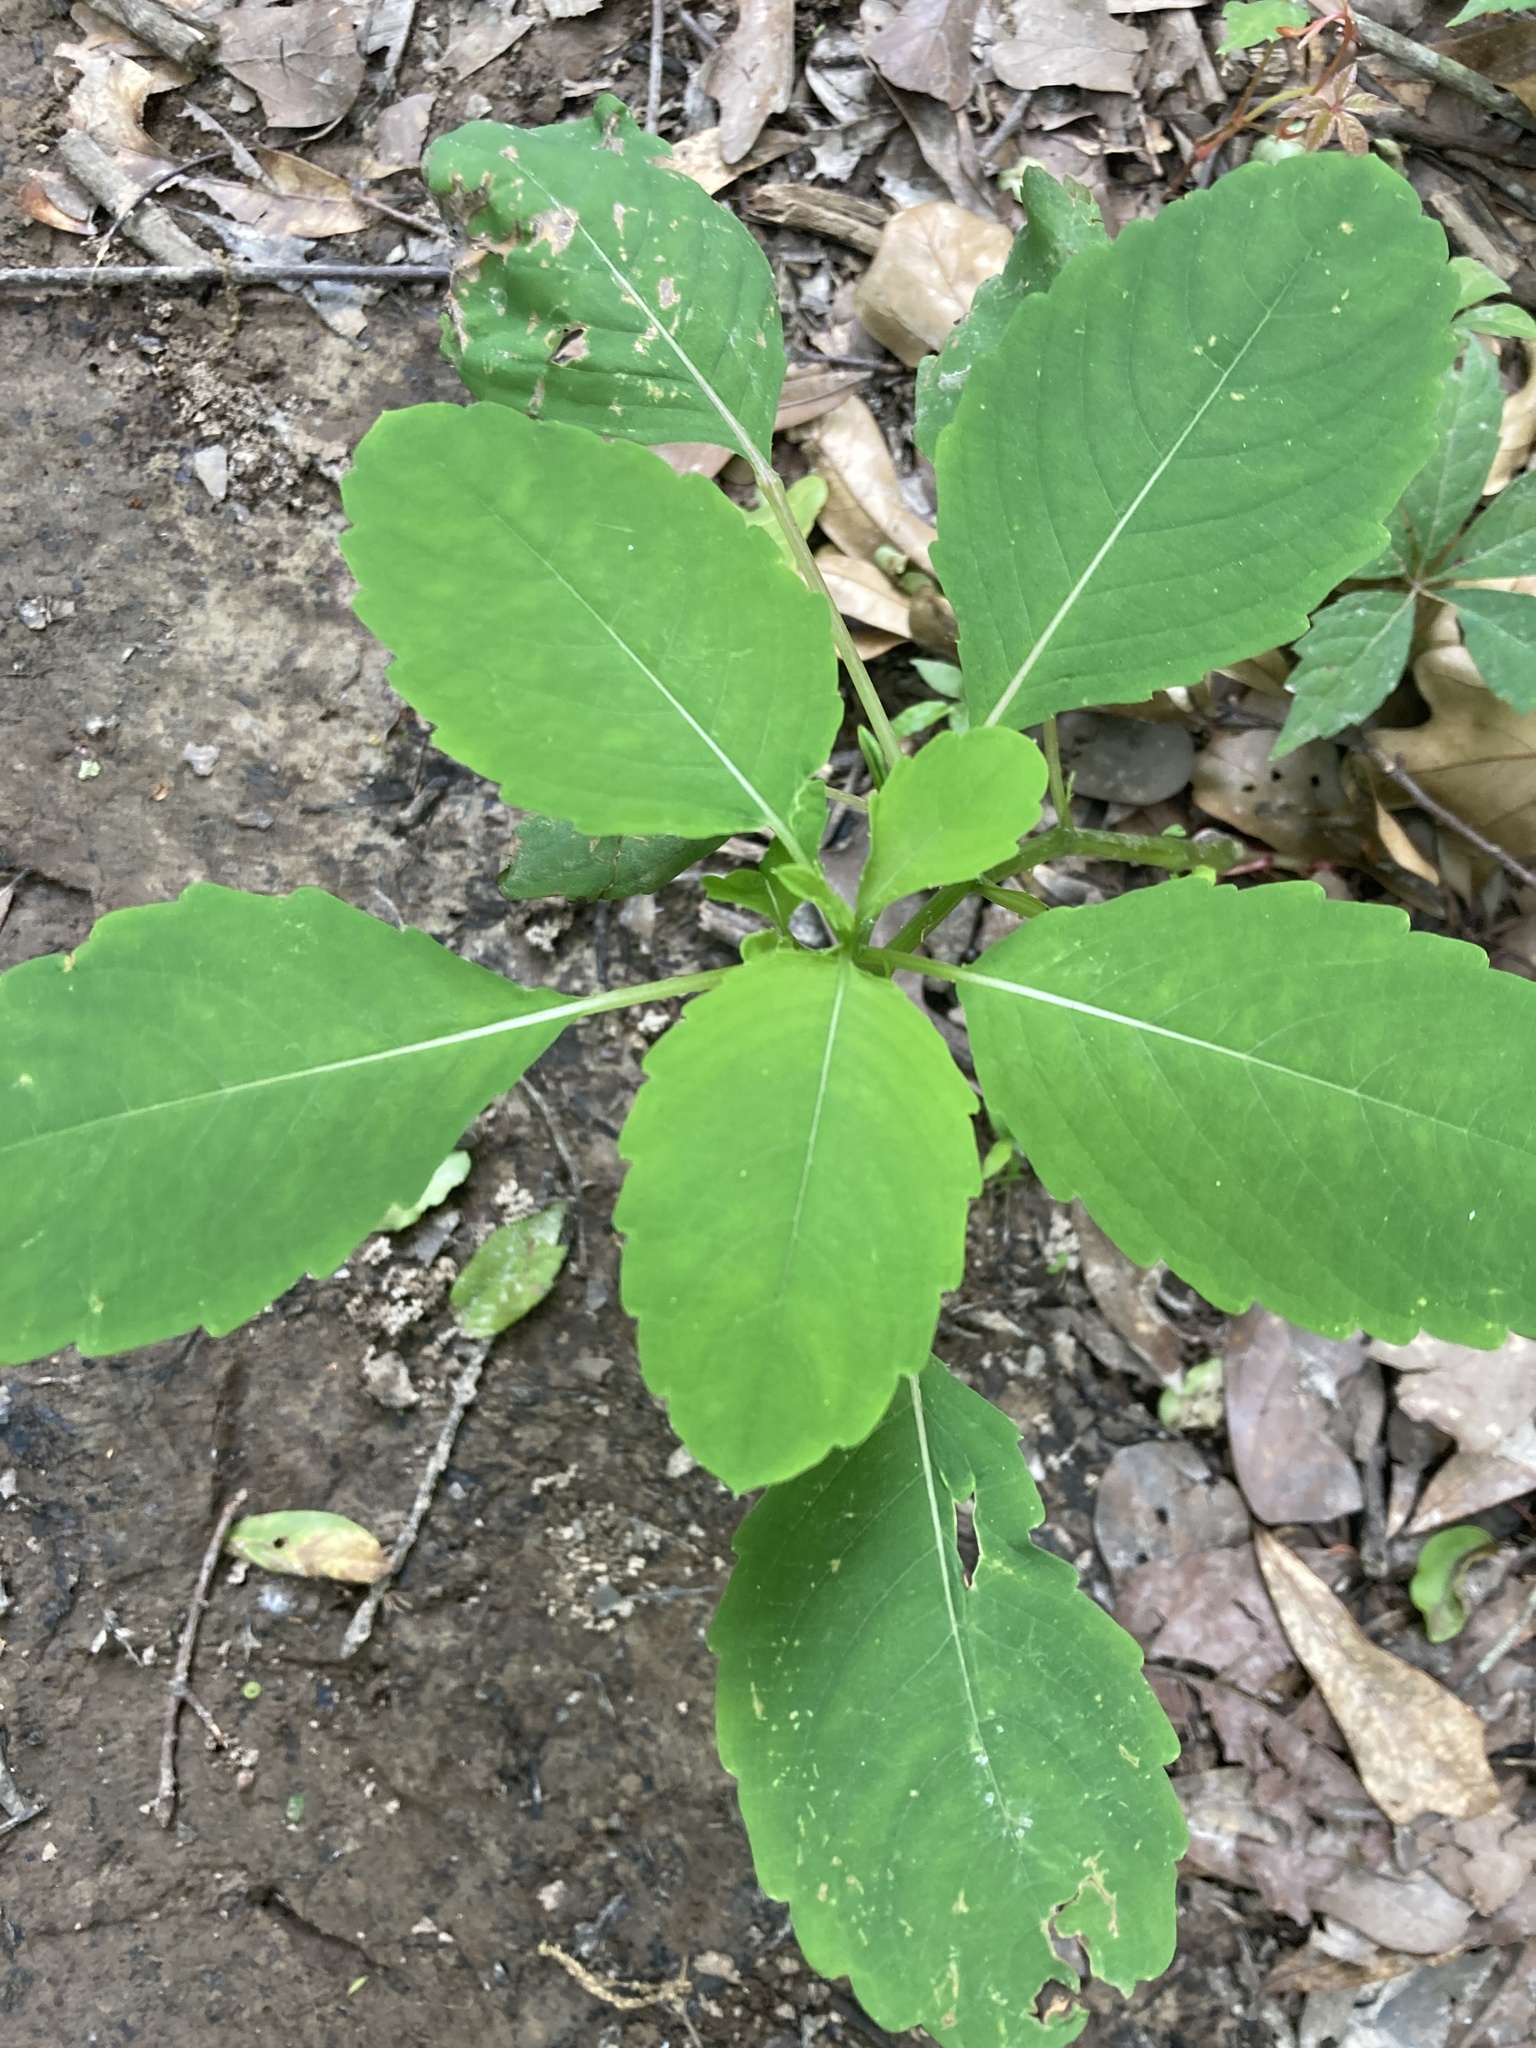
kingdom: Plantae
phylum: Tracheophyta
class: Magnoliopsida
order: Ericales
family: Balsaminaceae
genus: Impatiens
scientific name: Impatiens capensis
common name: Orange balsam
